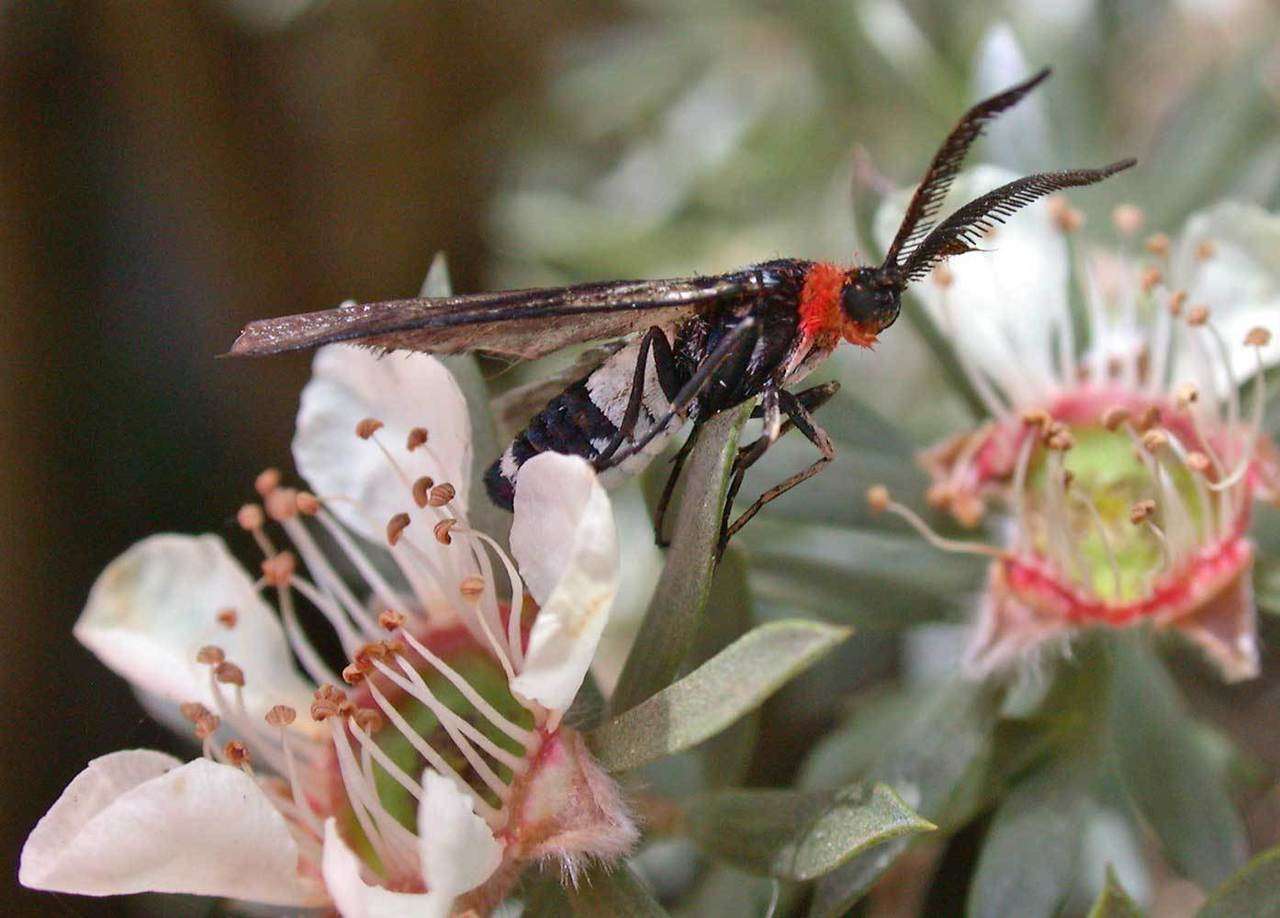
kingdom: Animalia
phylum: Arthropoda
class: Insecta
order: Lepidoptera
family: Zygaenidae
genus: Hestiochora
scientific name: Hestiochora furcata
